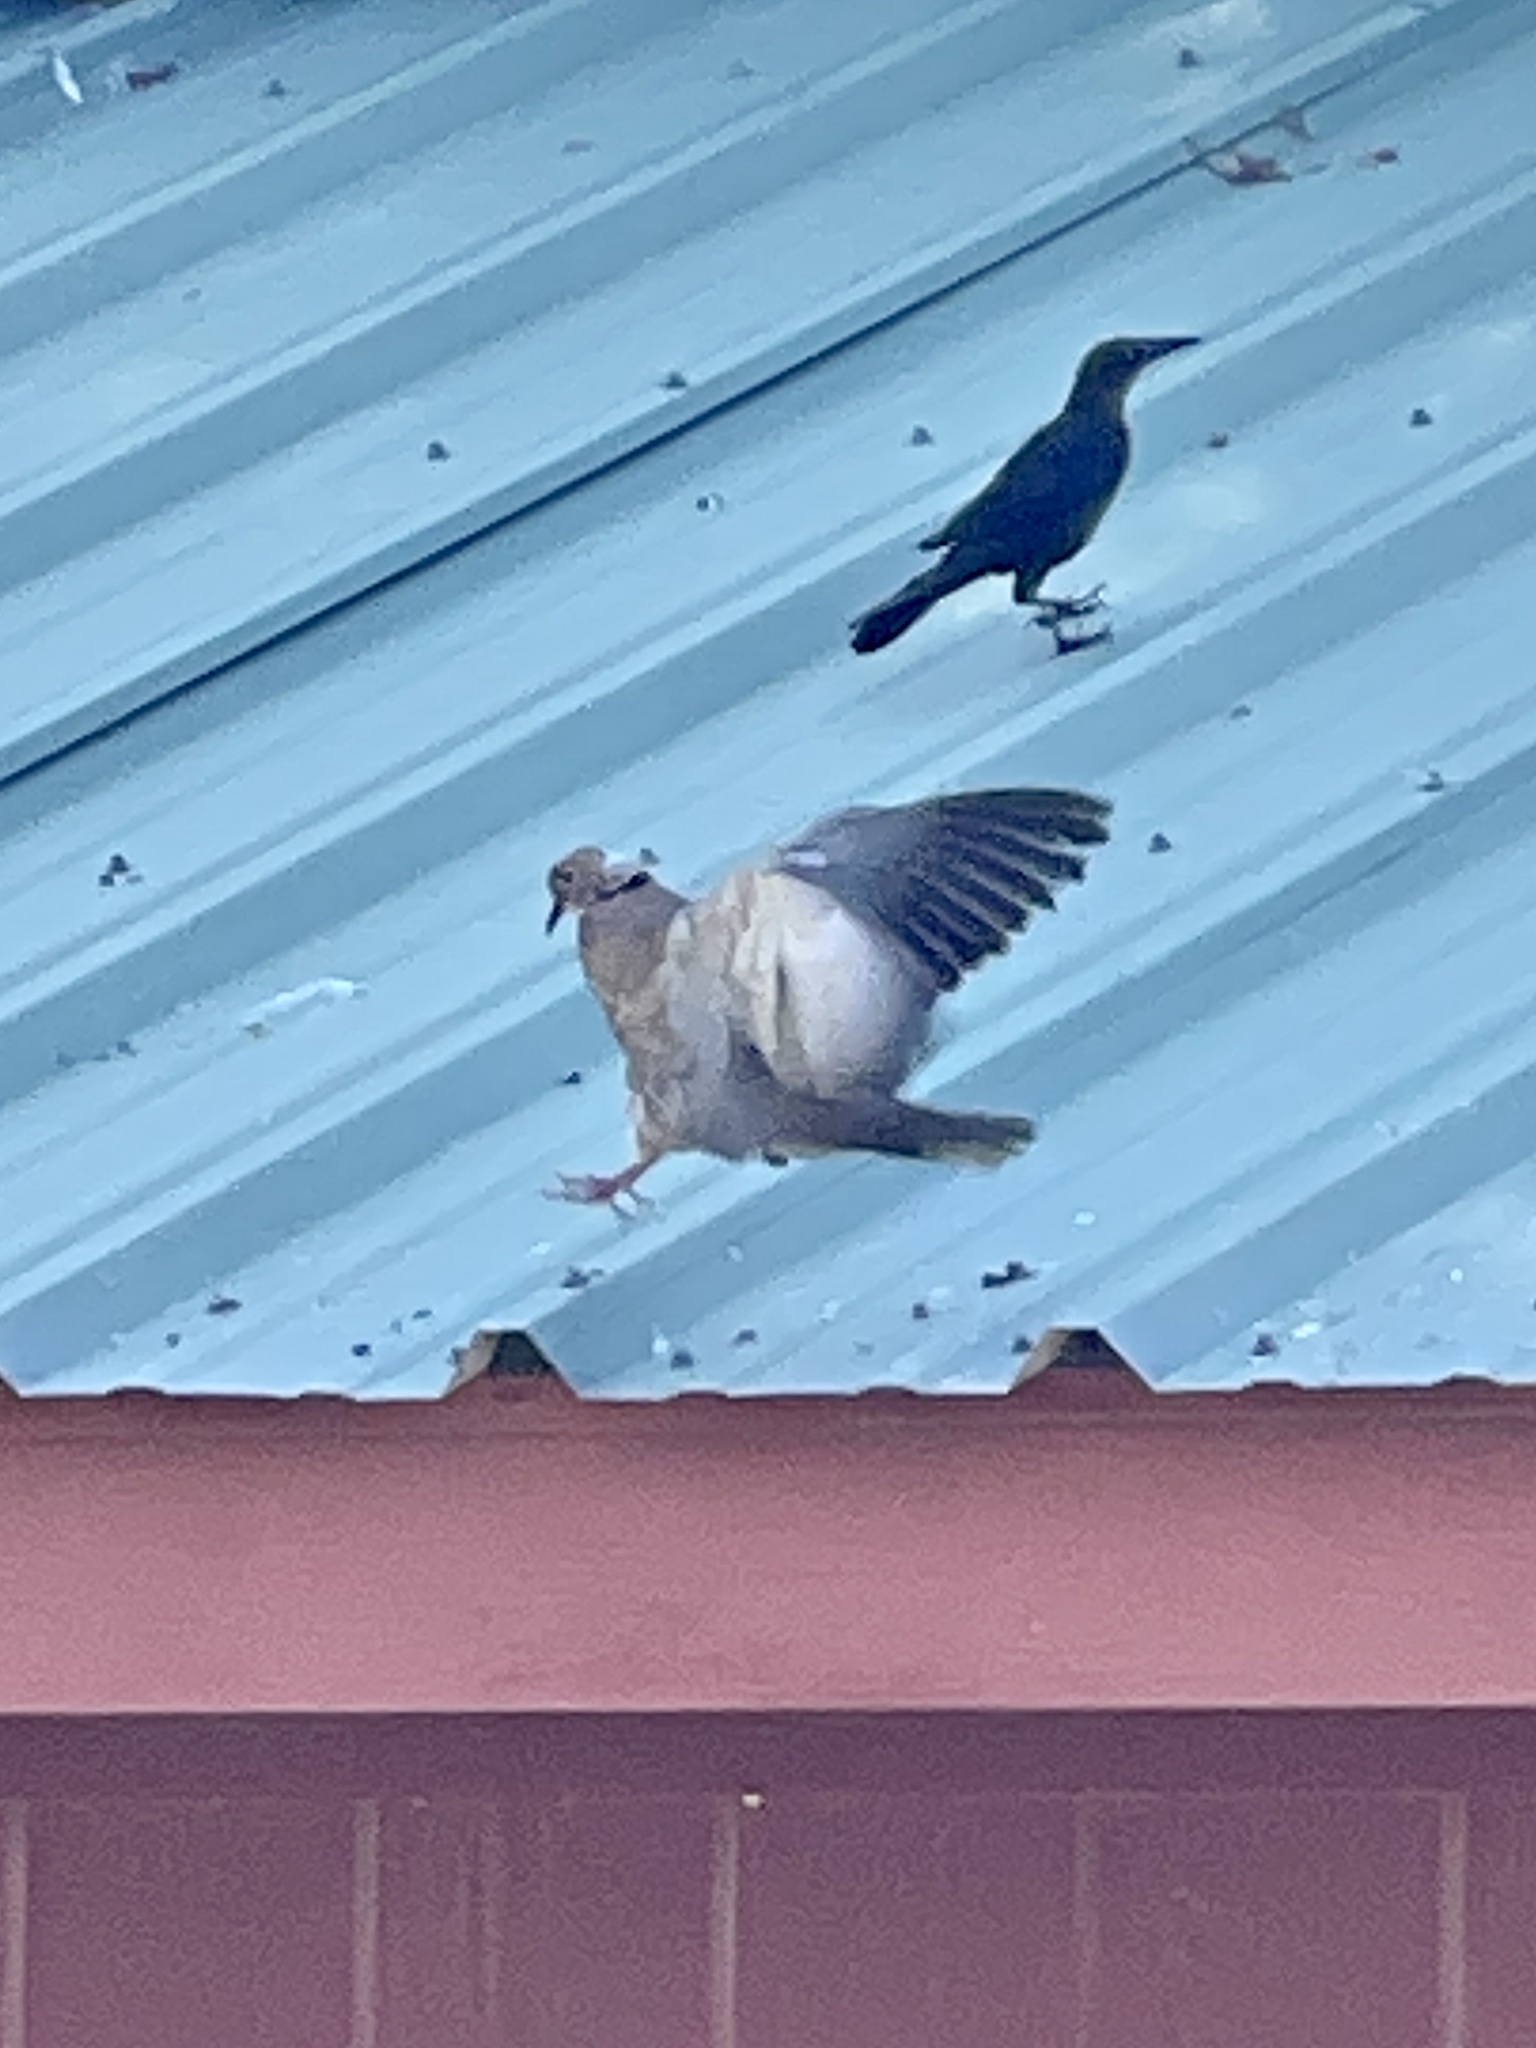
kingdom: Animalia
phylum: Chordata
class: Aves
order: Columbiformes
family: Columbidae
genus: Streptopelia
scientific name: Streptopelia decaocto
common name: Eurasian collared dove
